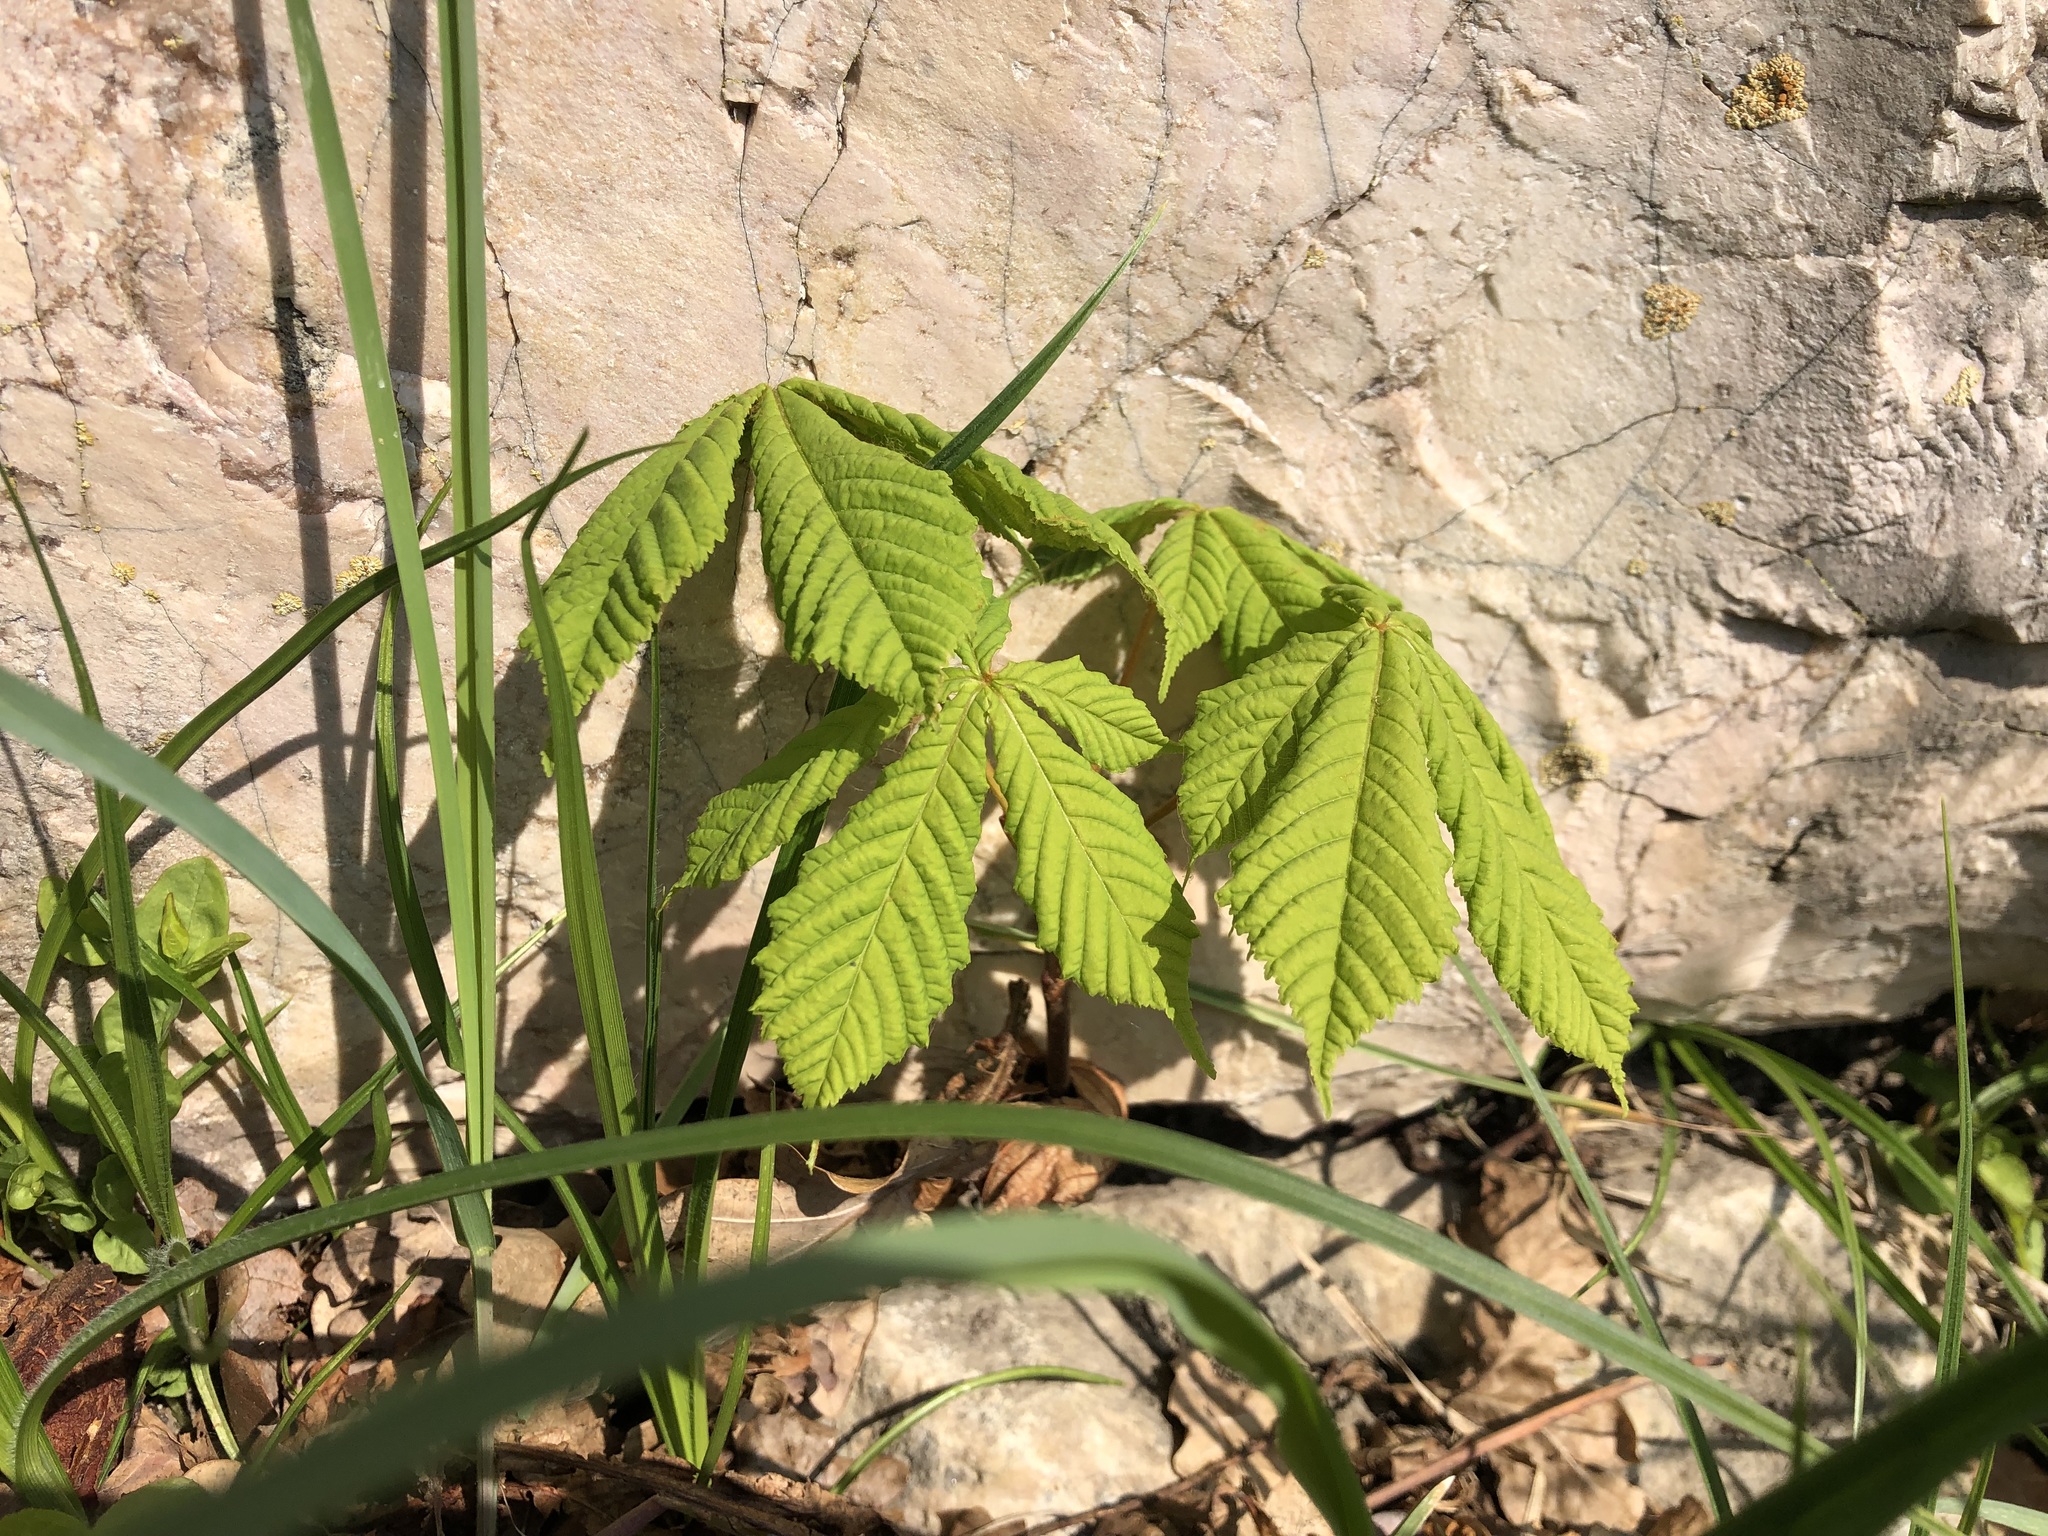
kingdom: Plantae
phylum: Tracheophyta
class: Magnoliopsida
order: Sapindales
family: Sapindaceae
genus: Aesculus
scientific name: Aesculus hippocastanum
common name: Horse-chestnut
